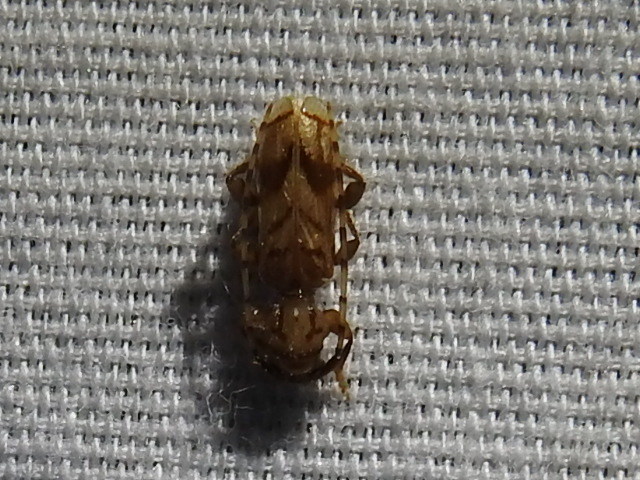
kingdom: Animalia
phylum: Arthropoda
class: Insecta
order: Coleoptera
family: Cerambycidae
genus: Obrium
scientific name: Obrium maculatum
